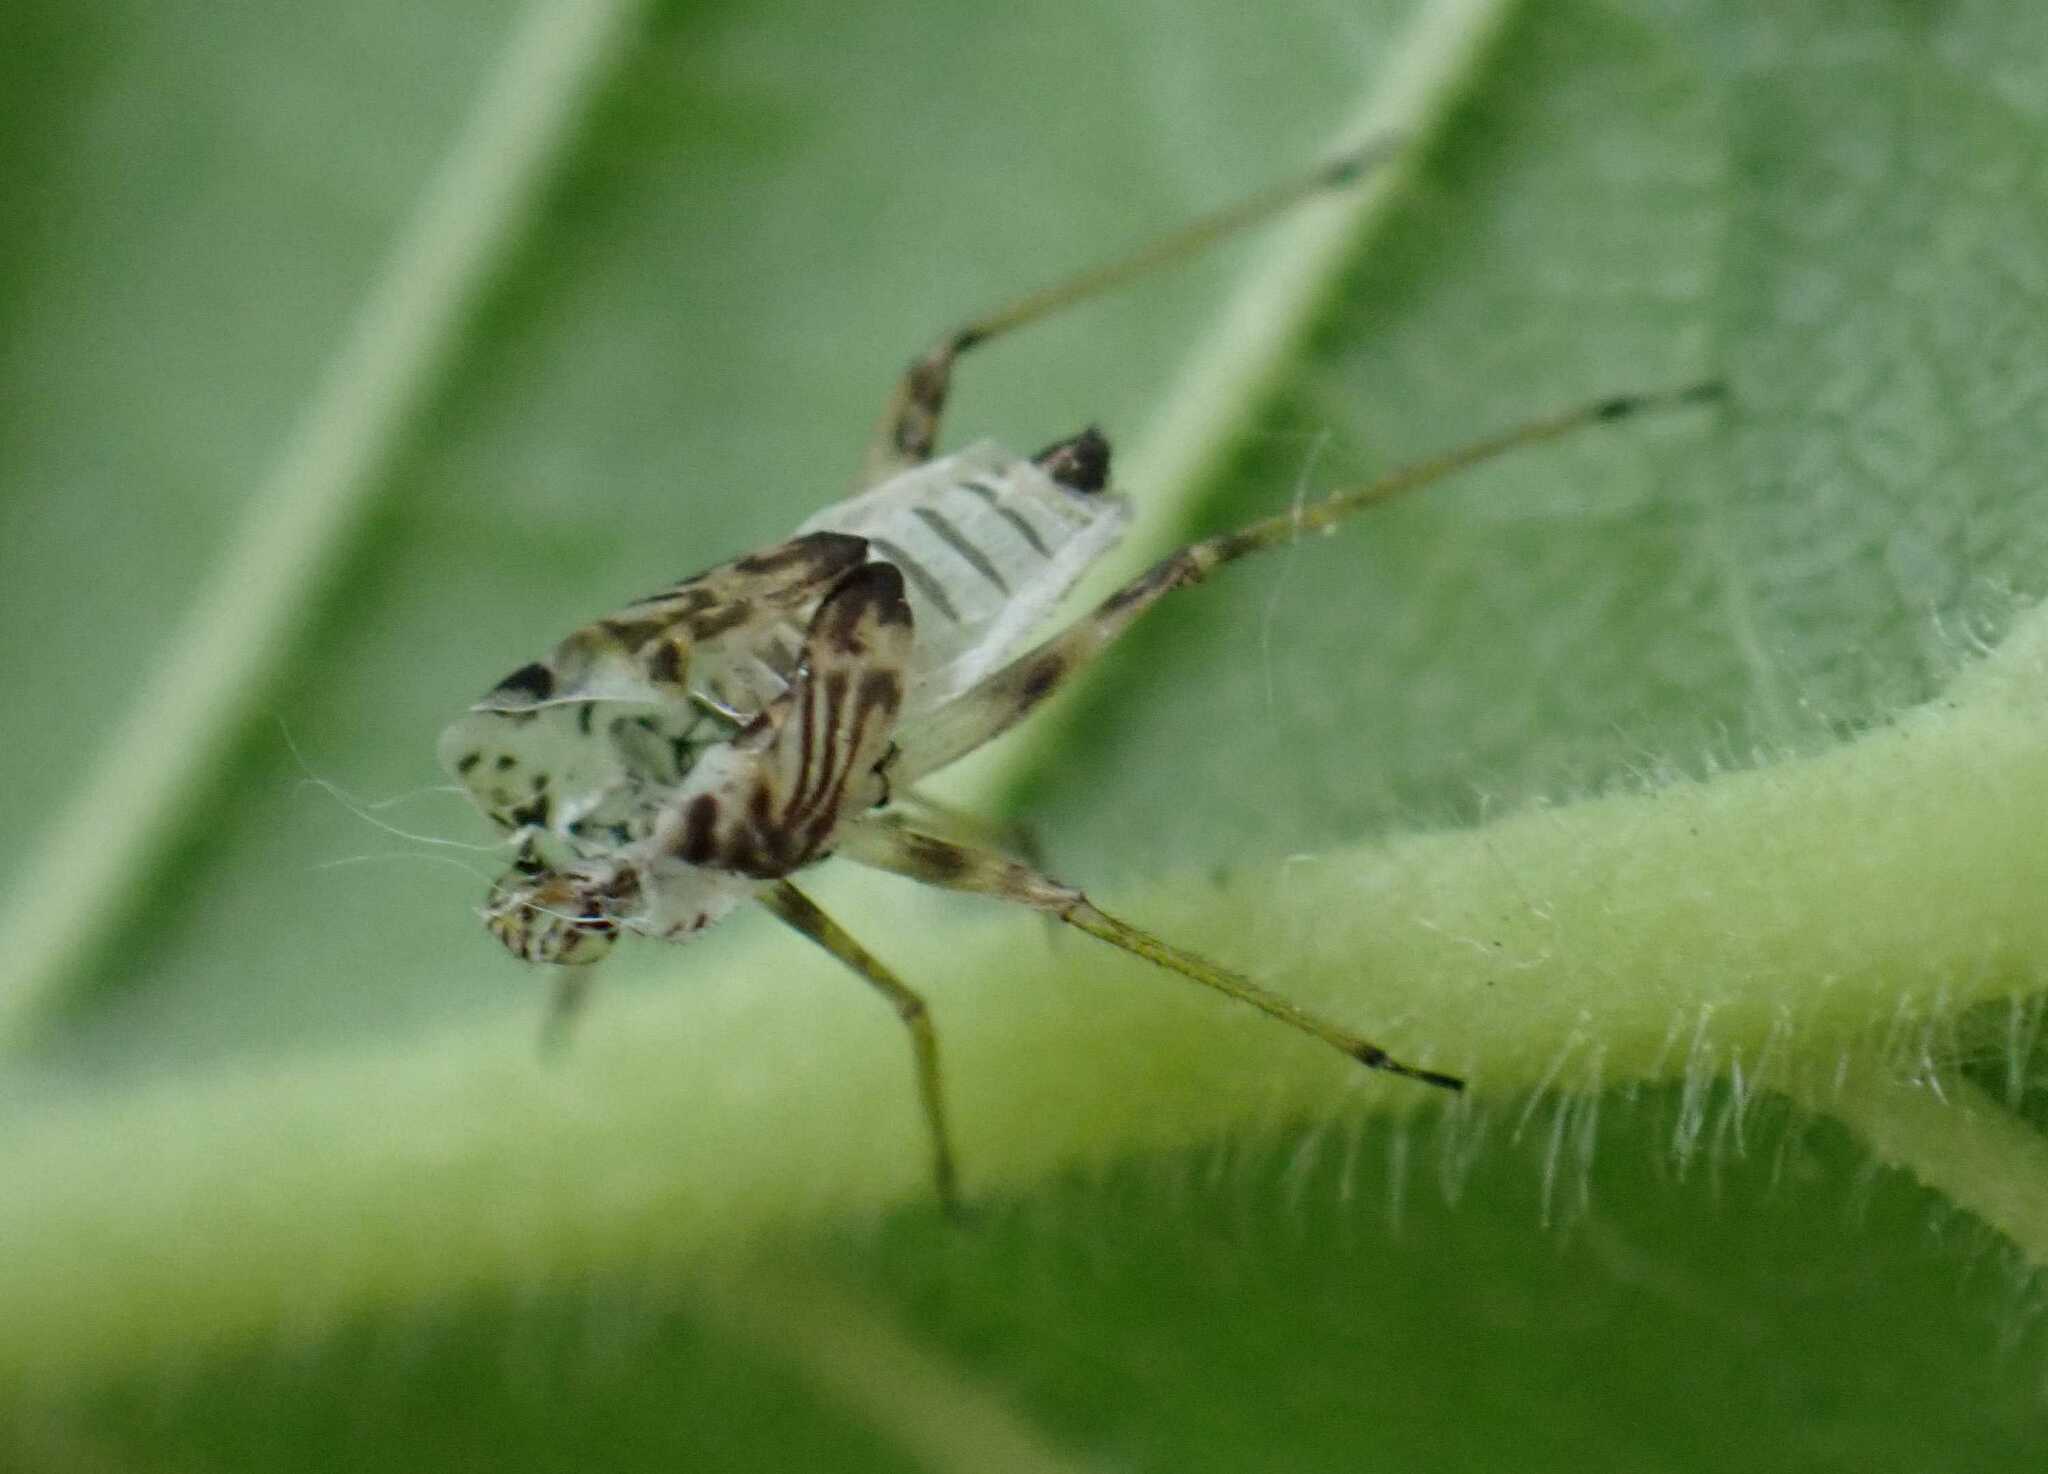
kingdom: Animalia
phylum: Arthropoda
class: Insecta
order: Hemiptera
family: Miridae
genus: Rhabdomiris
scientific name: Rhabdomiris striatellus
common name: Plant bug
